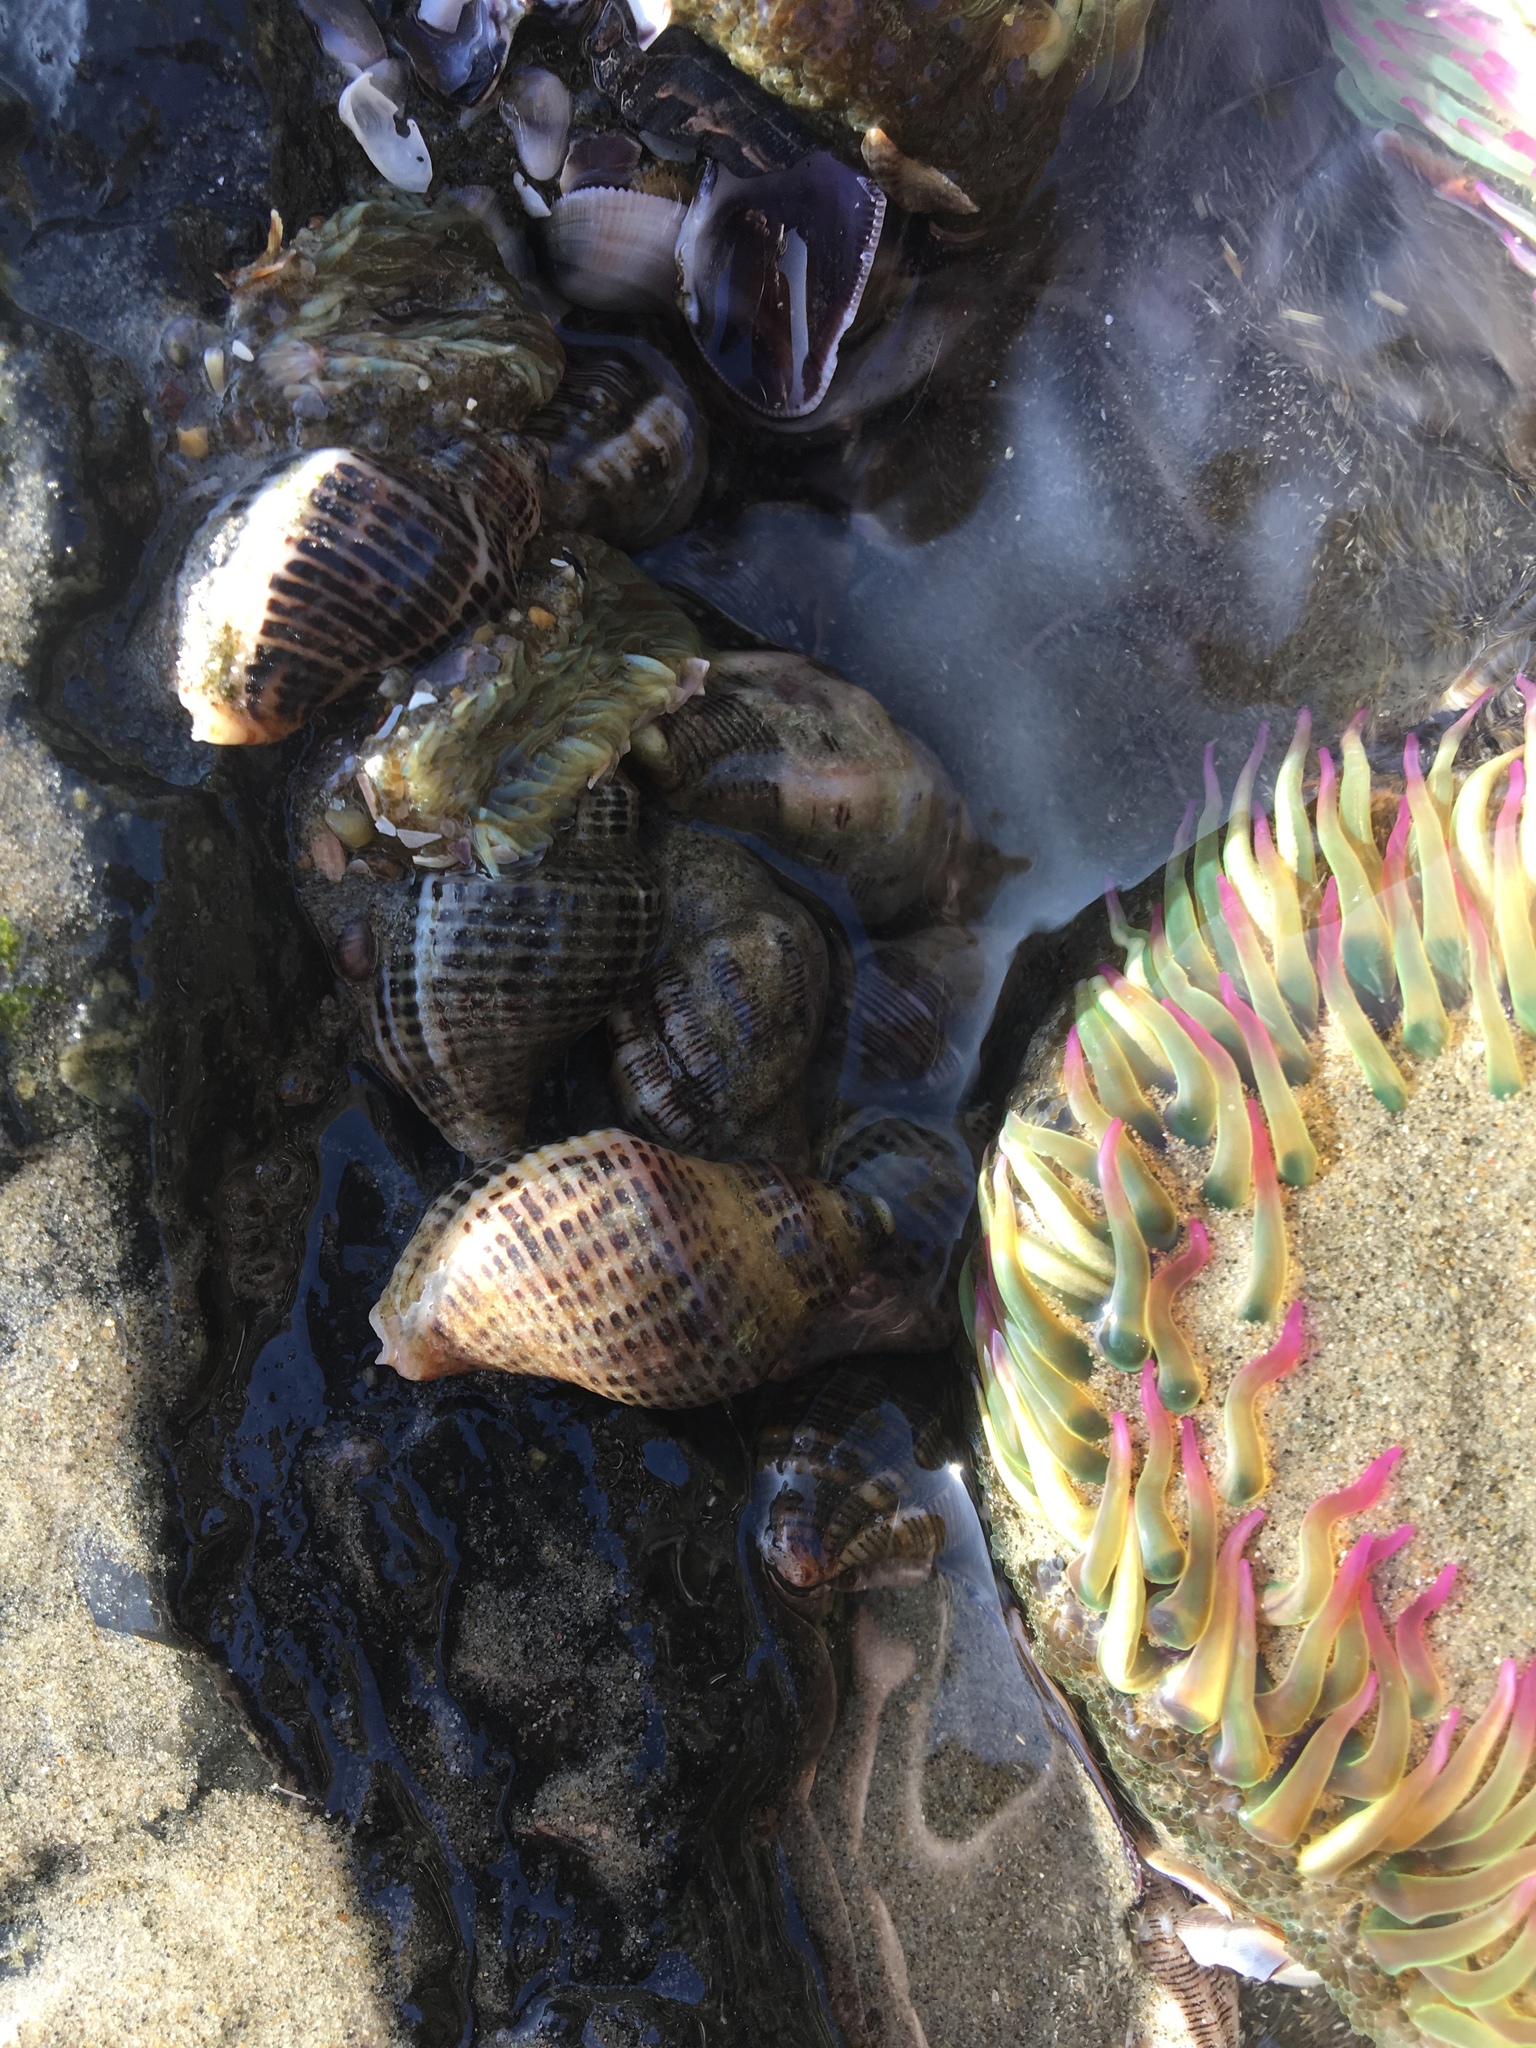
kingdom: Animalia
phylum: Mollusca
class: Gastropoda
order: Neogastropoda
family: Muricidae
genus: Roperia
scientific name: Roperia poulsoni
